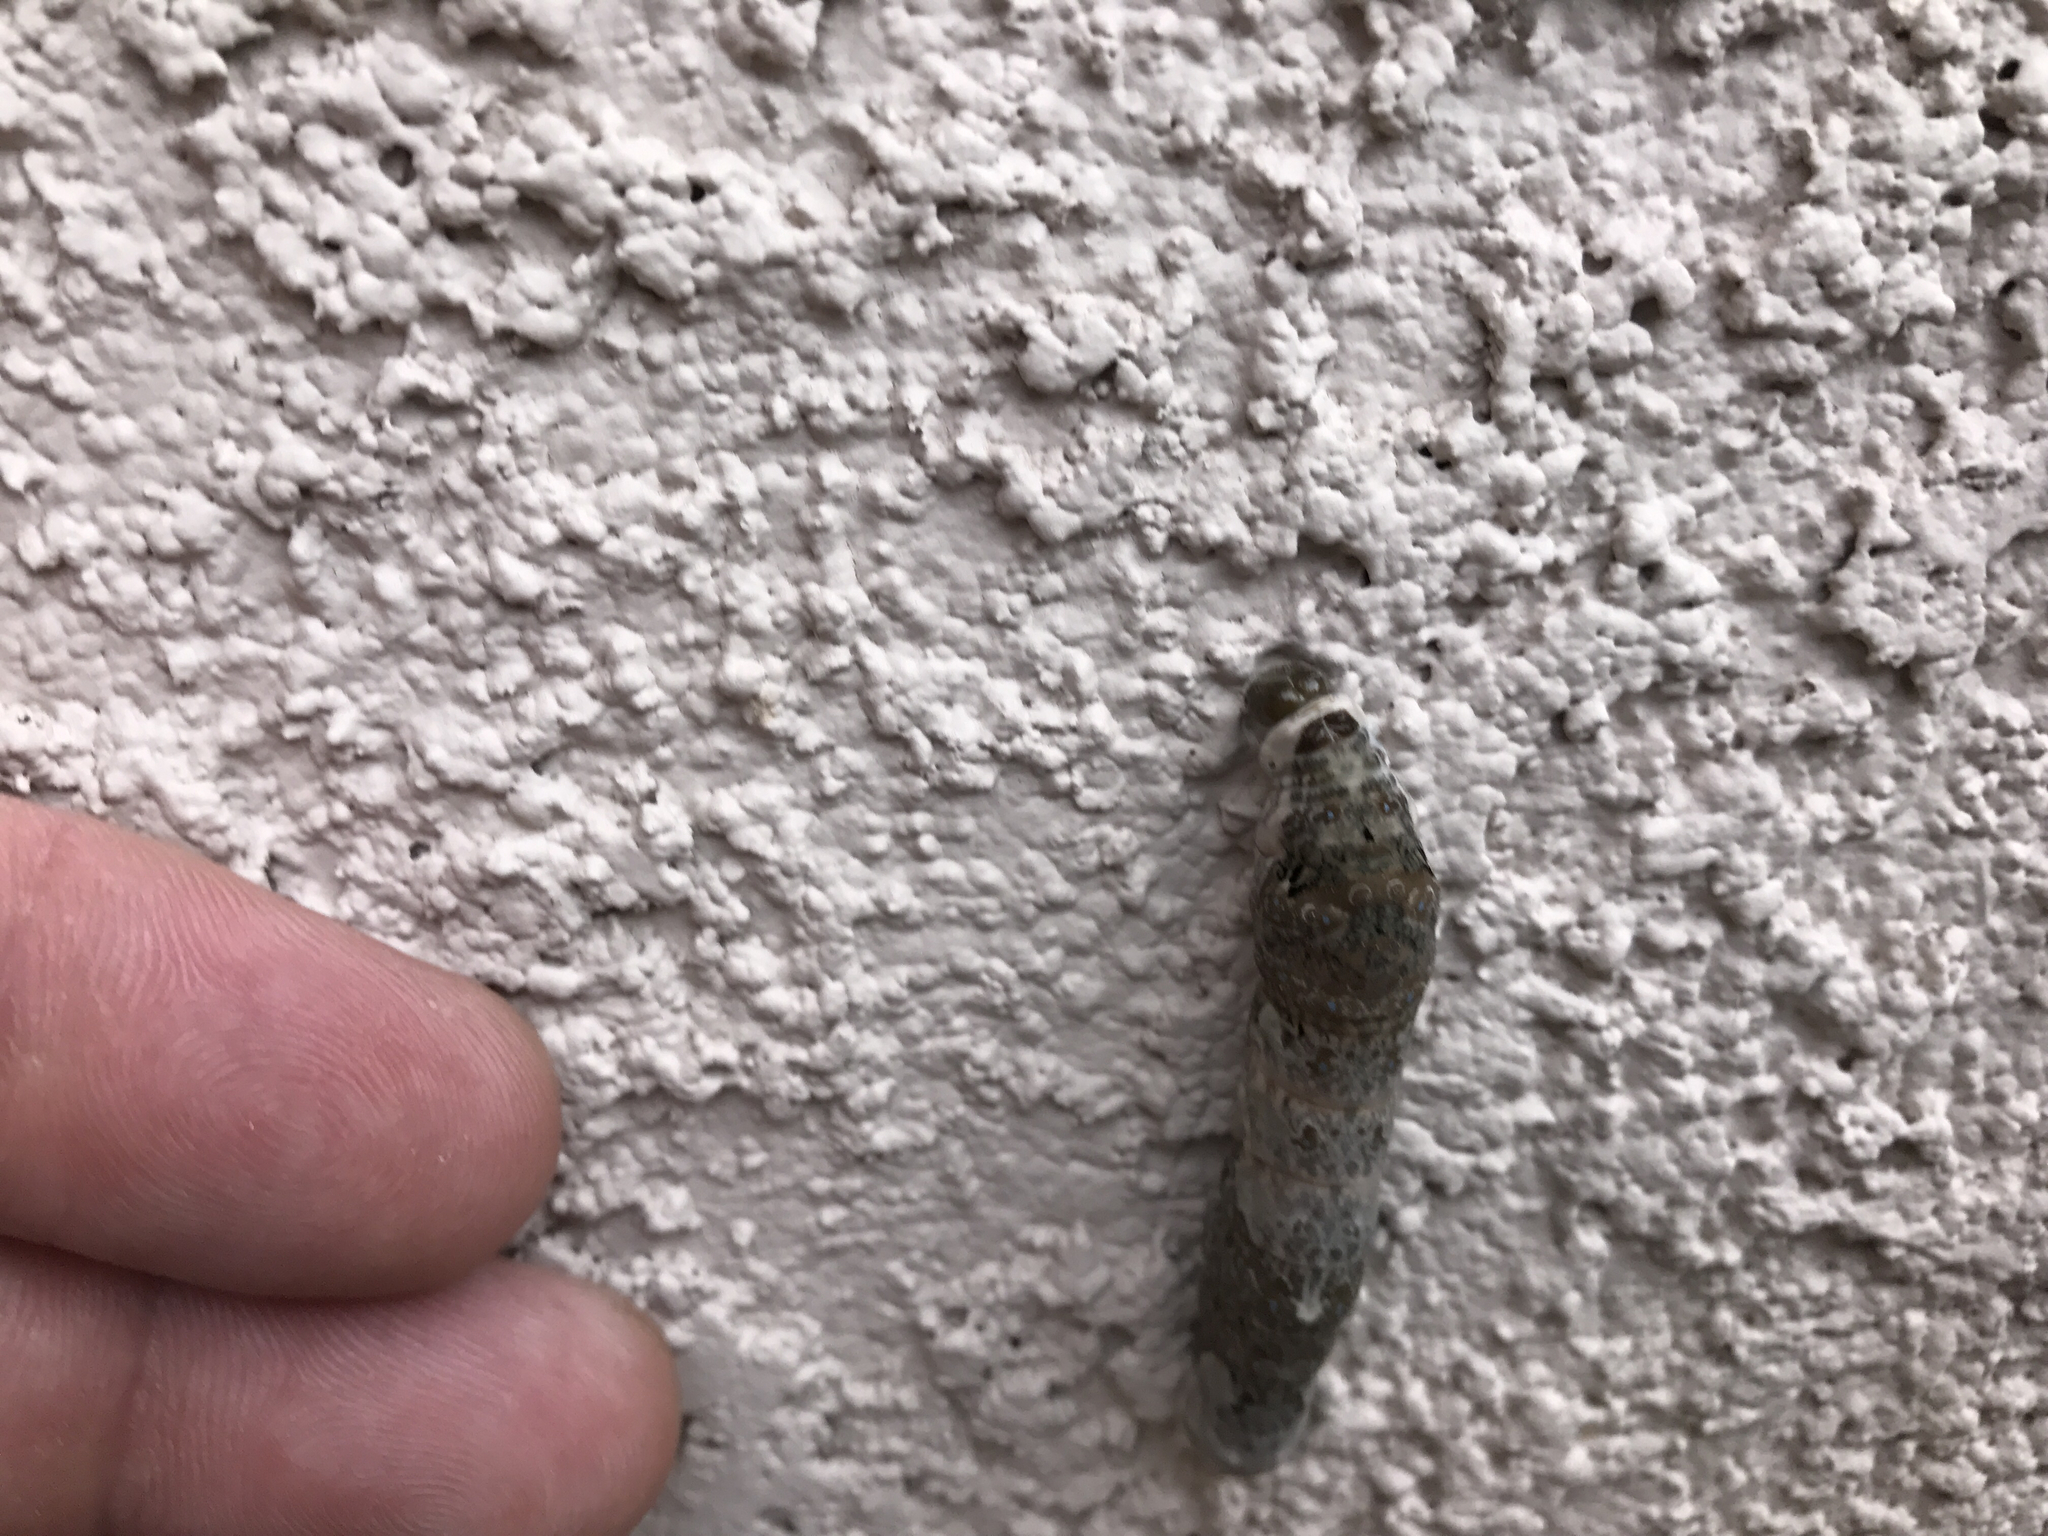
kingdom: Animalia
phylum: Arthropoda
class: Insecta
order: Lepidoptera
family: Papilionidae
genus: Papilio
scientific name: Papilio rumiko
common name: Western giant swallowtail
